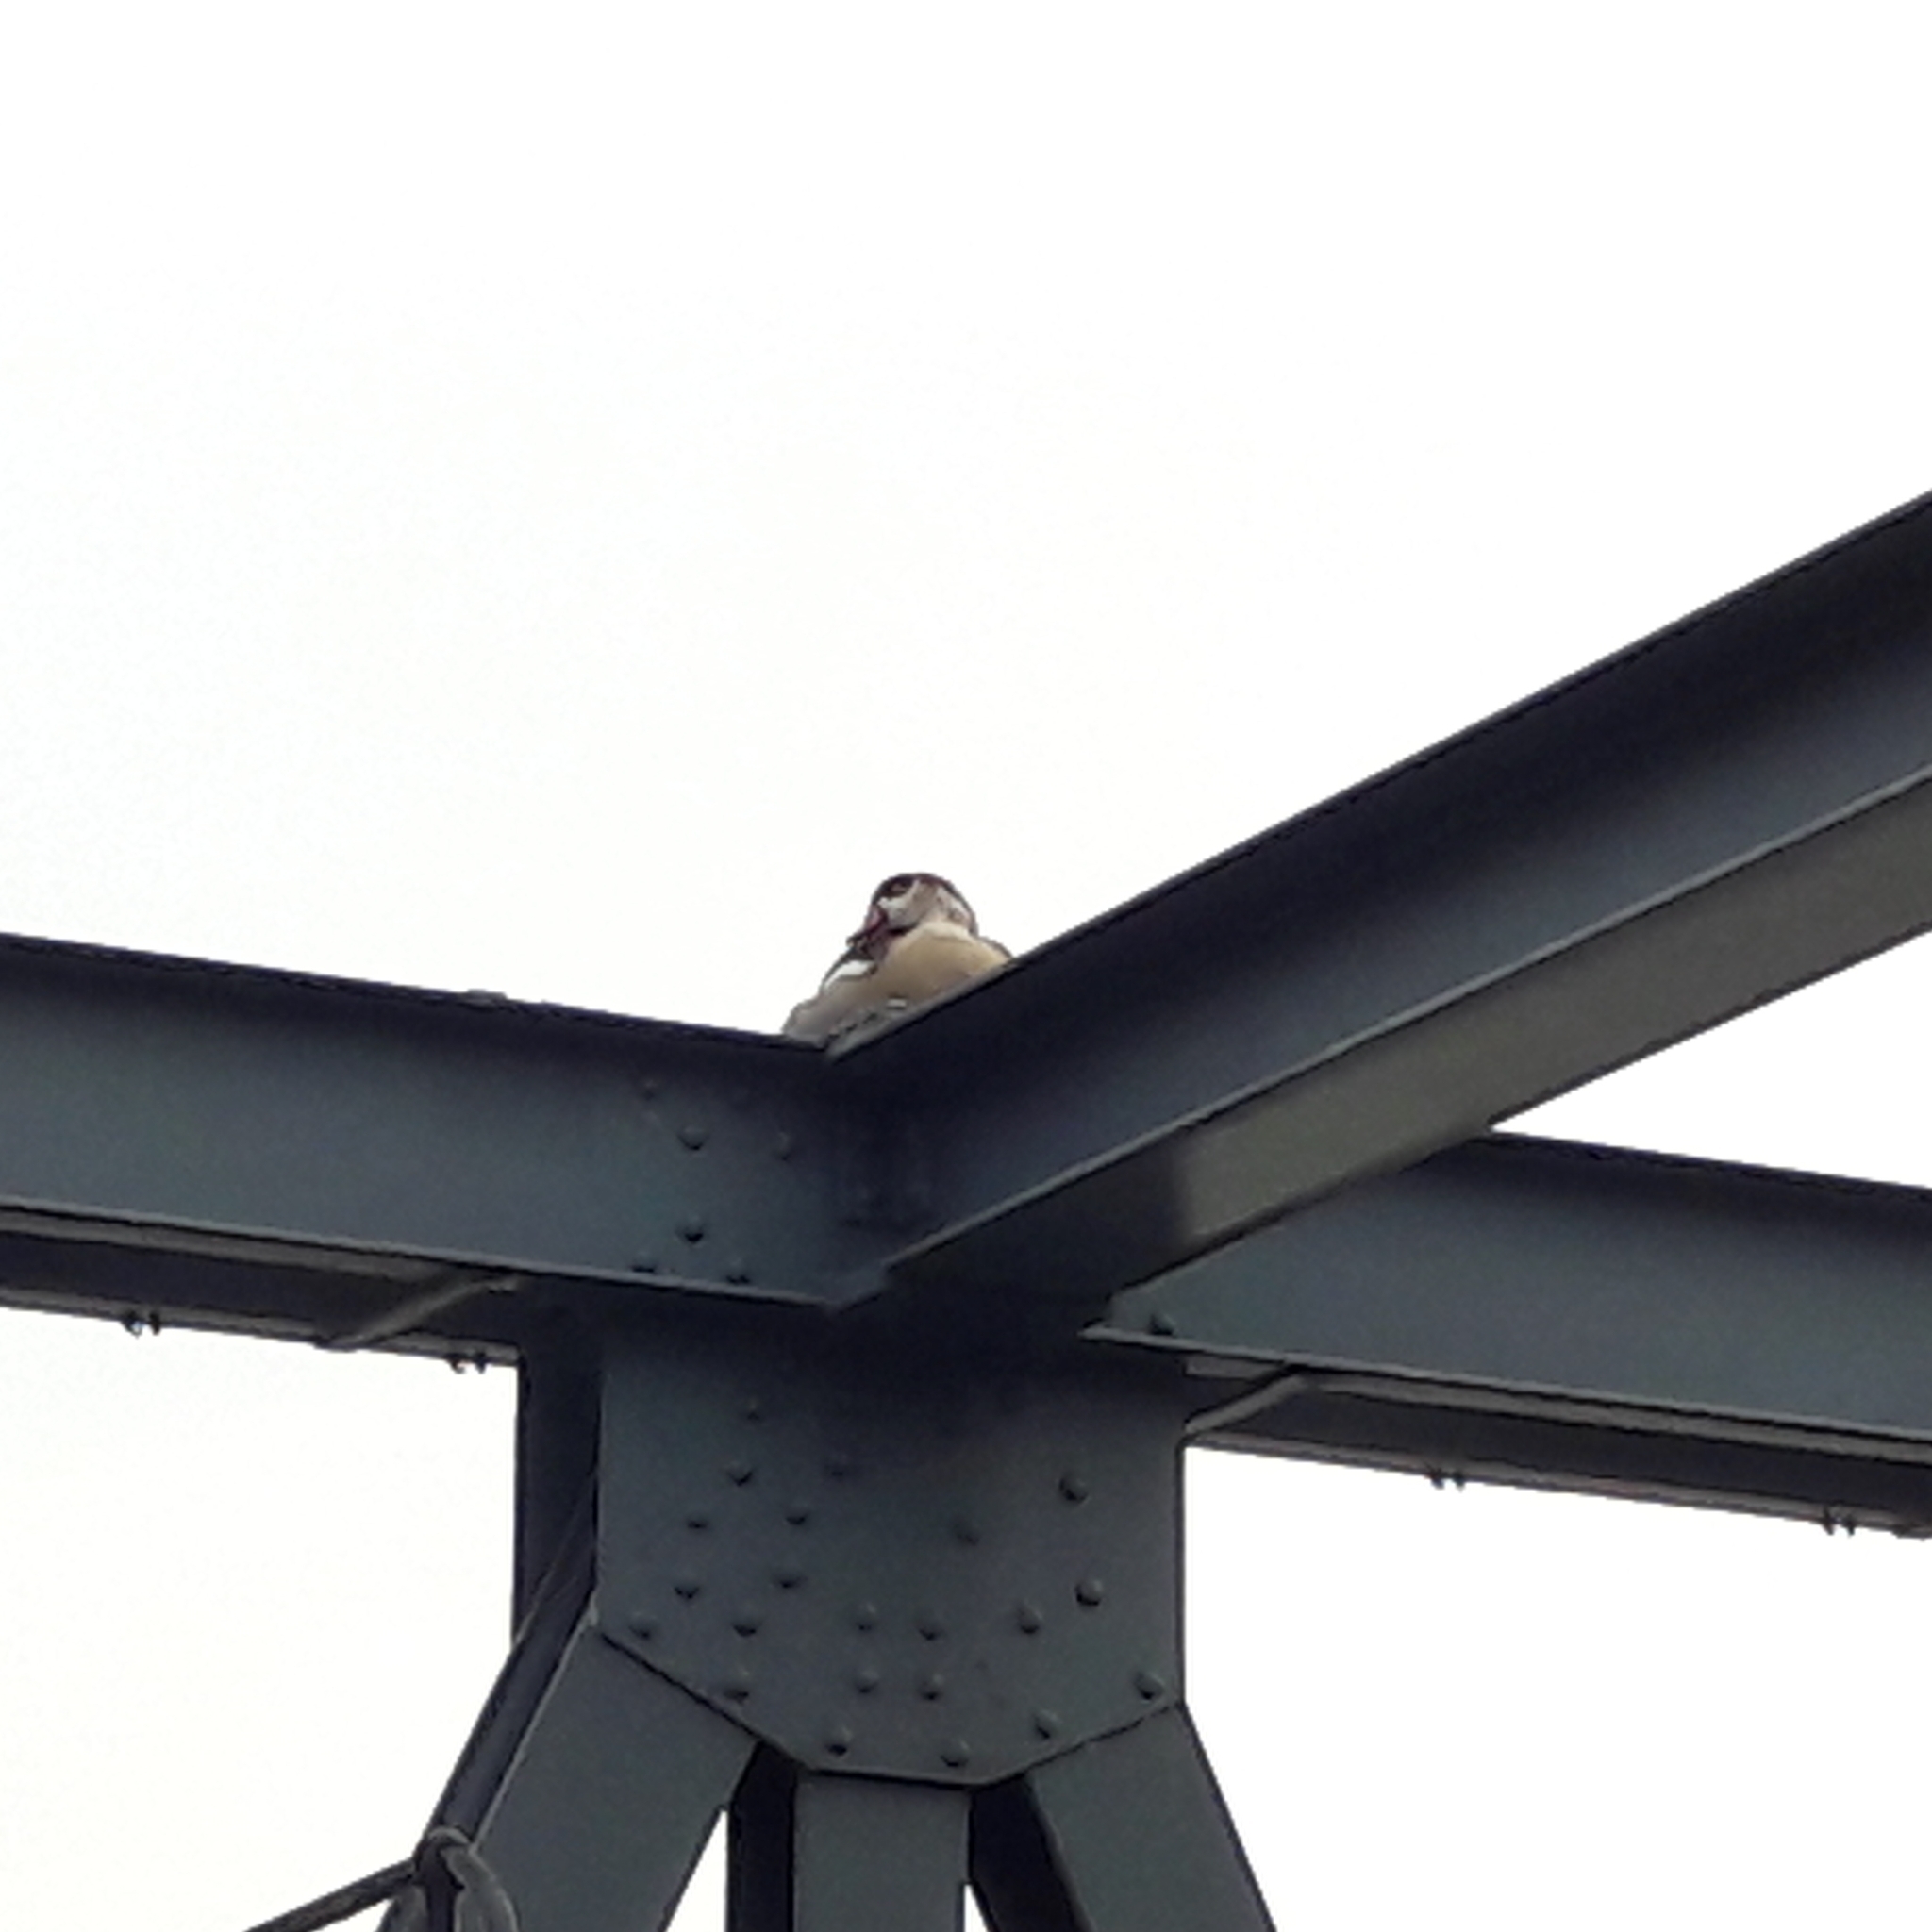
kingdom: Animalia
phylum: Chordata
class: Aves
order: Anseriformes
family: Anatidae
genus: Alopochen
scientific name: Alopochen aegyptiaca
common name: Egyptian goose
